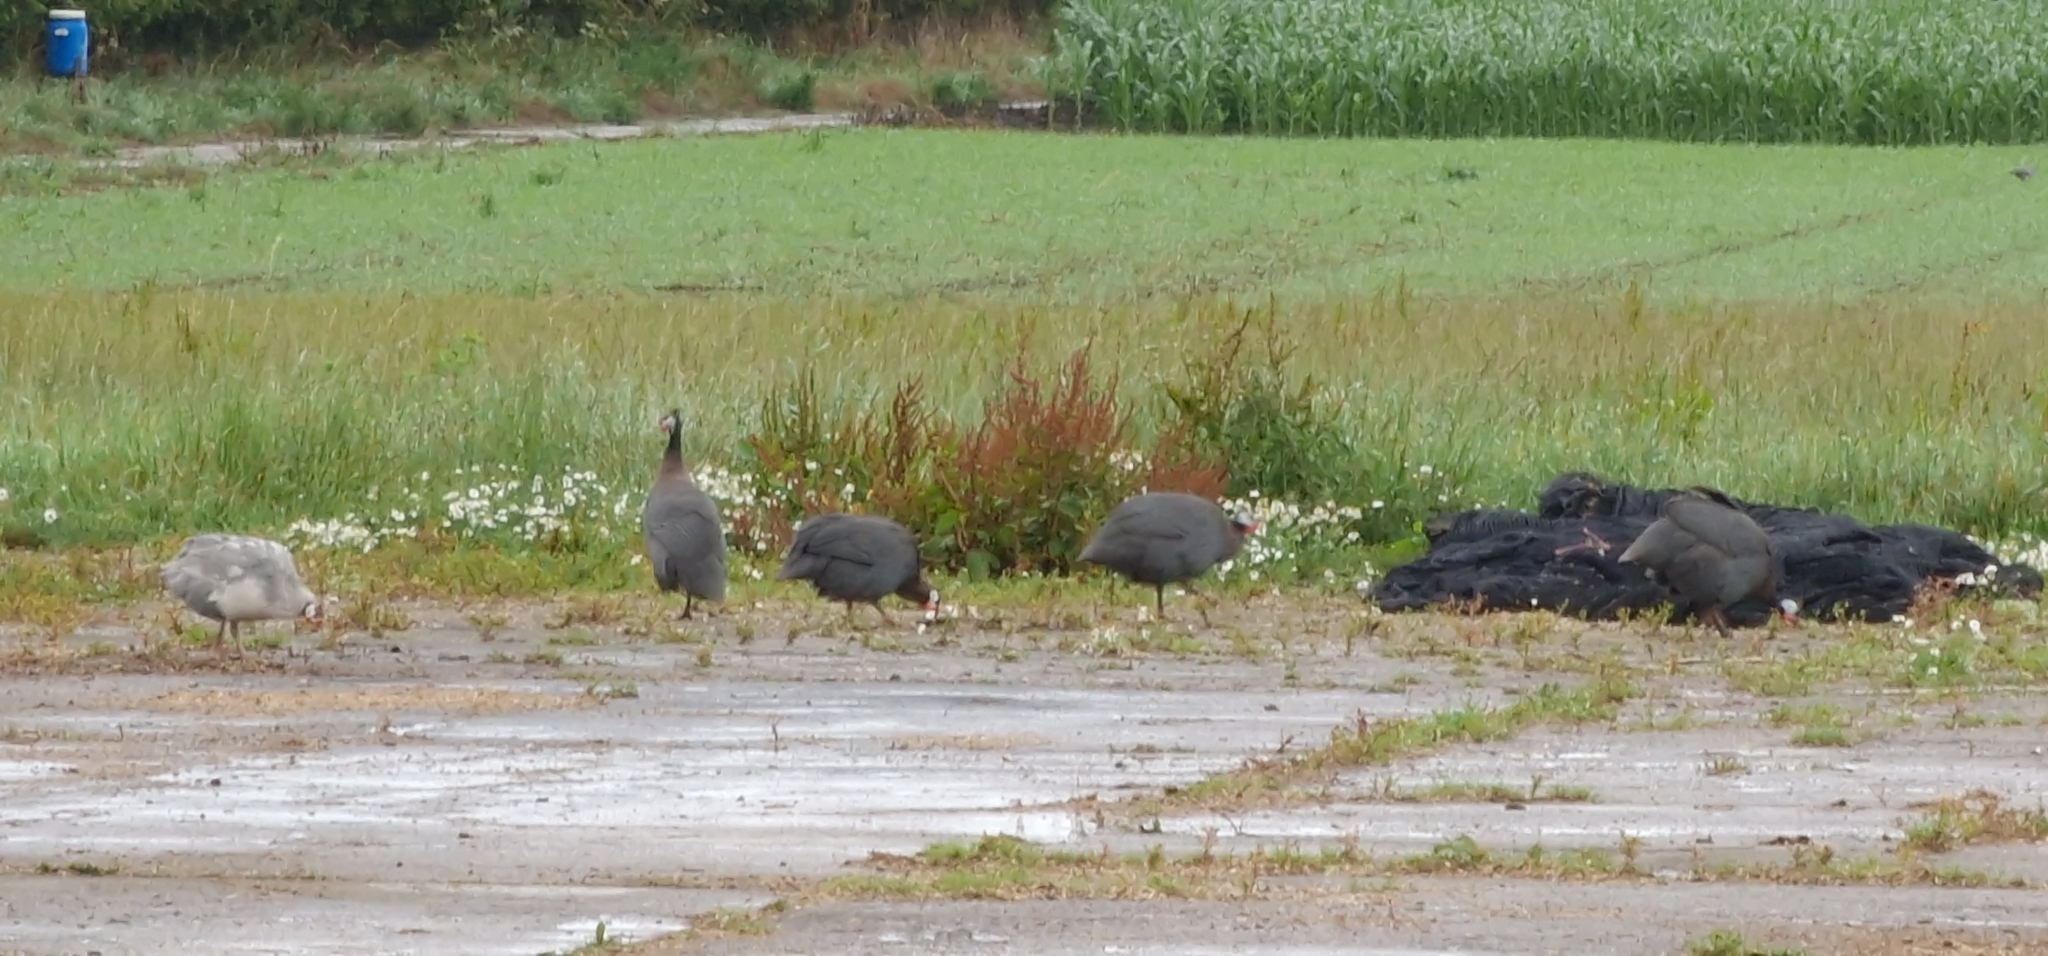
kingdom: Animalia
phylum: Chordata
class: Aves
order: Galliformes
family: Numididae
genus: Numida
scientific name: Numida meleagris
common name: Helmeted guineafowl
